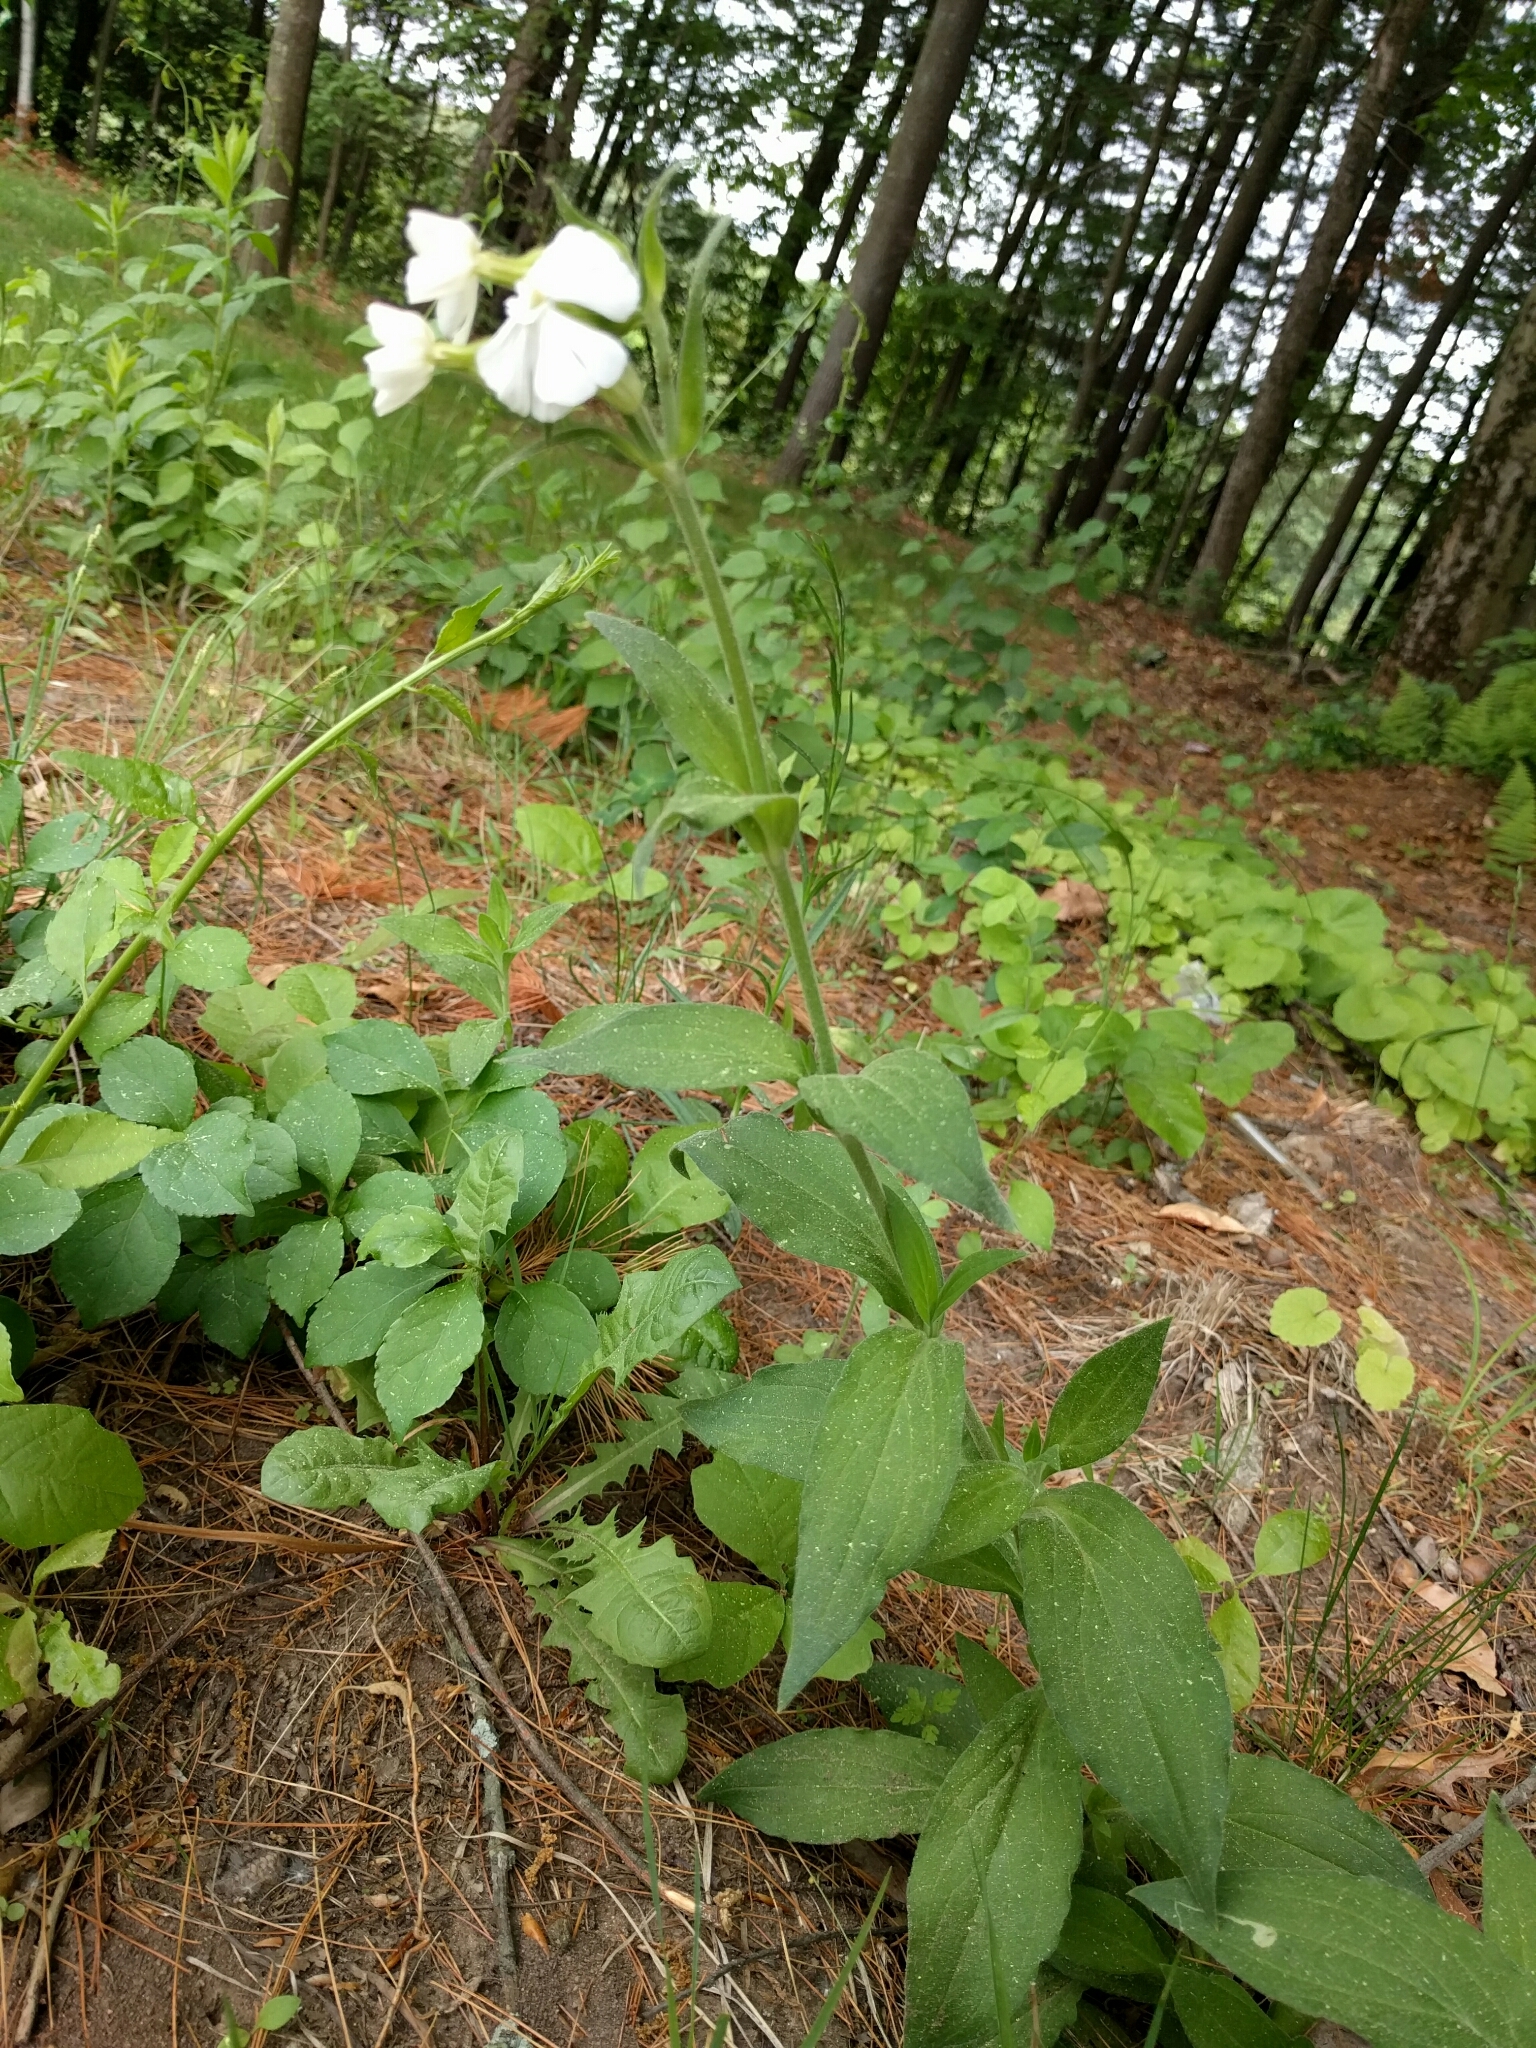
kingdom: Plantae
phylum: Tracheophyta
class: Magnoliopsida
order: Caryophyllales
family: Caryophyllaceae
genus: Silene
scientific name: Silene latifolia
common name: White campion
